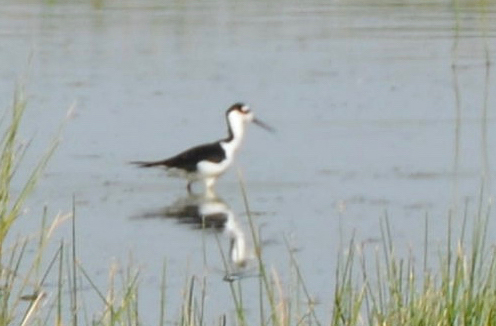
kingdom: Animalia
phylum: Chordata
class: Aves
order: Charadriiformes
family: Recurvirostridae
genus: Himantopus
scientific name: Himantopus mexicanus
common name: Black-necked stilt
